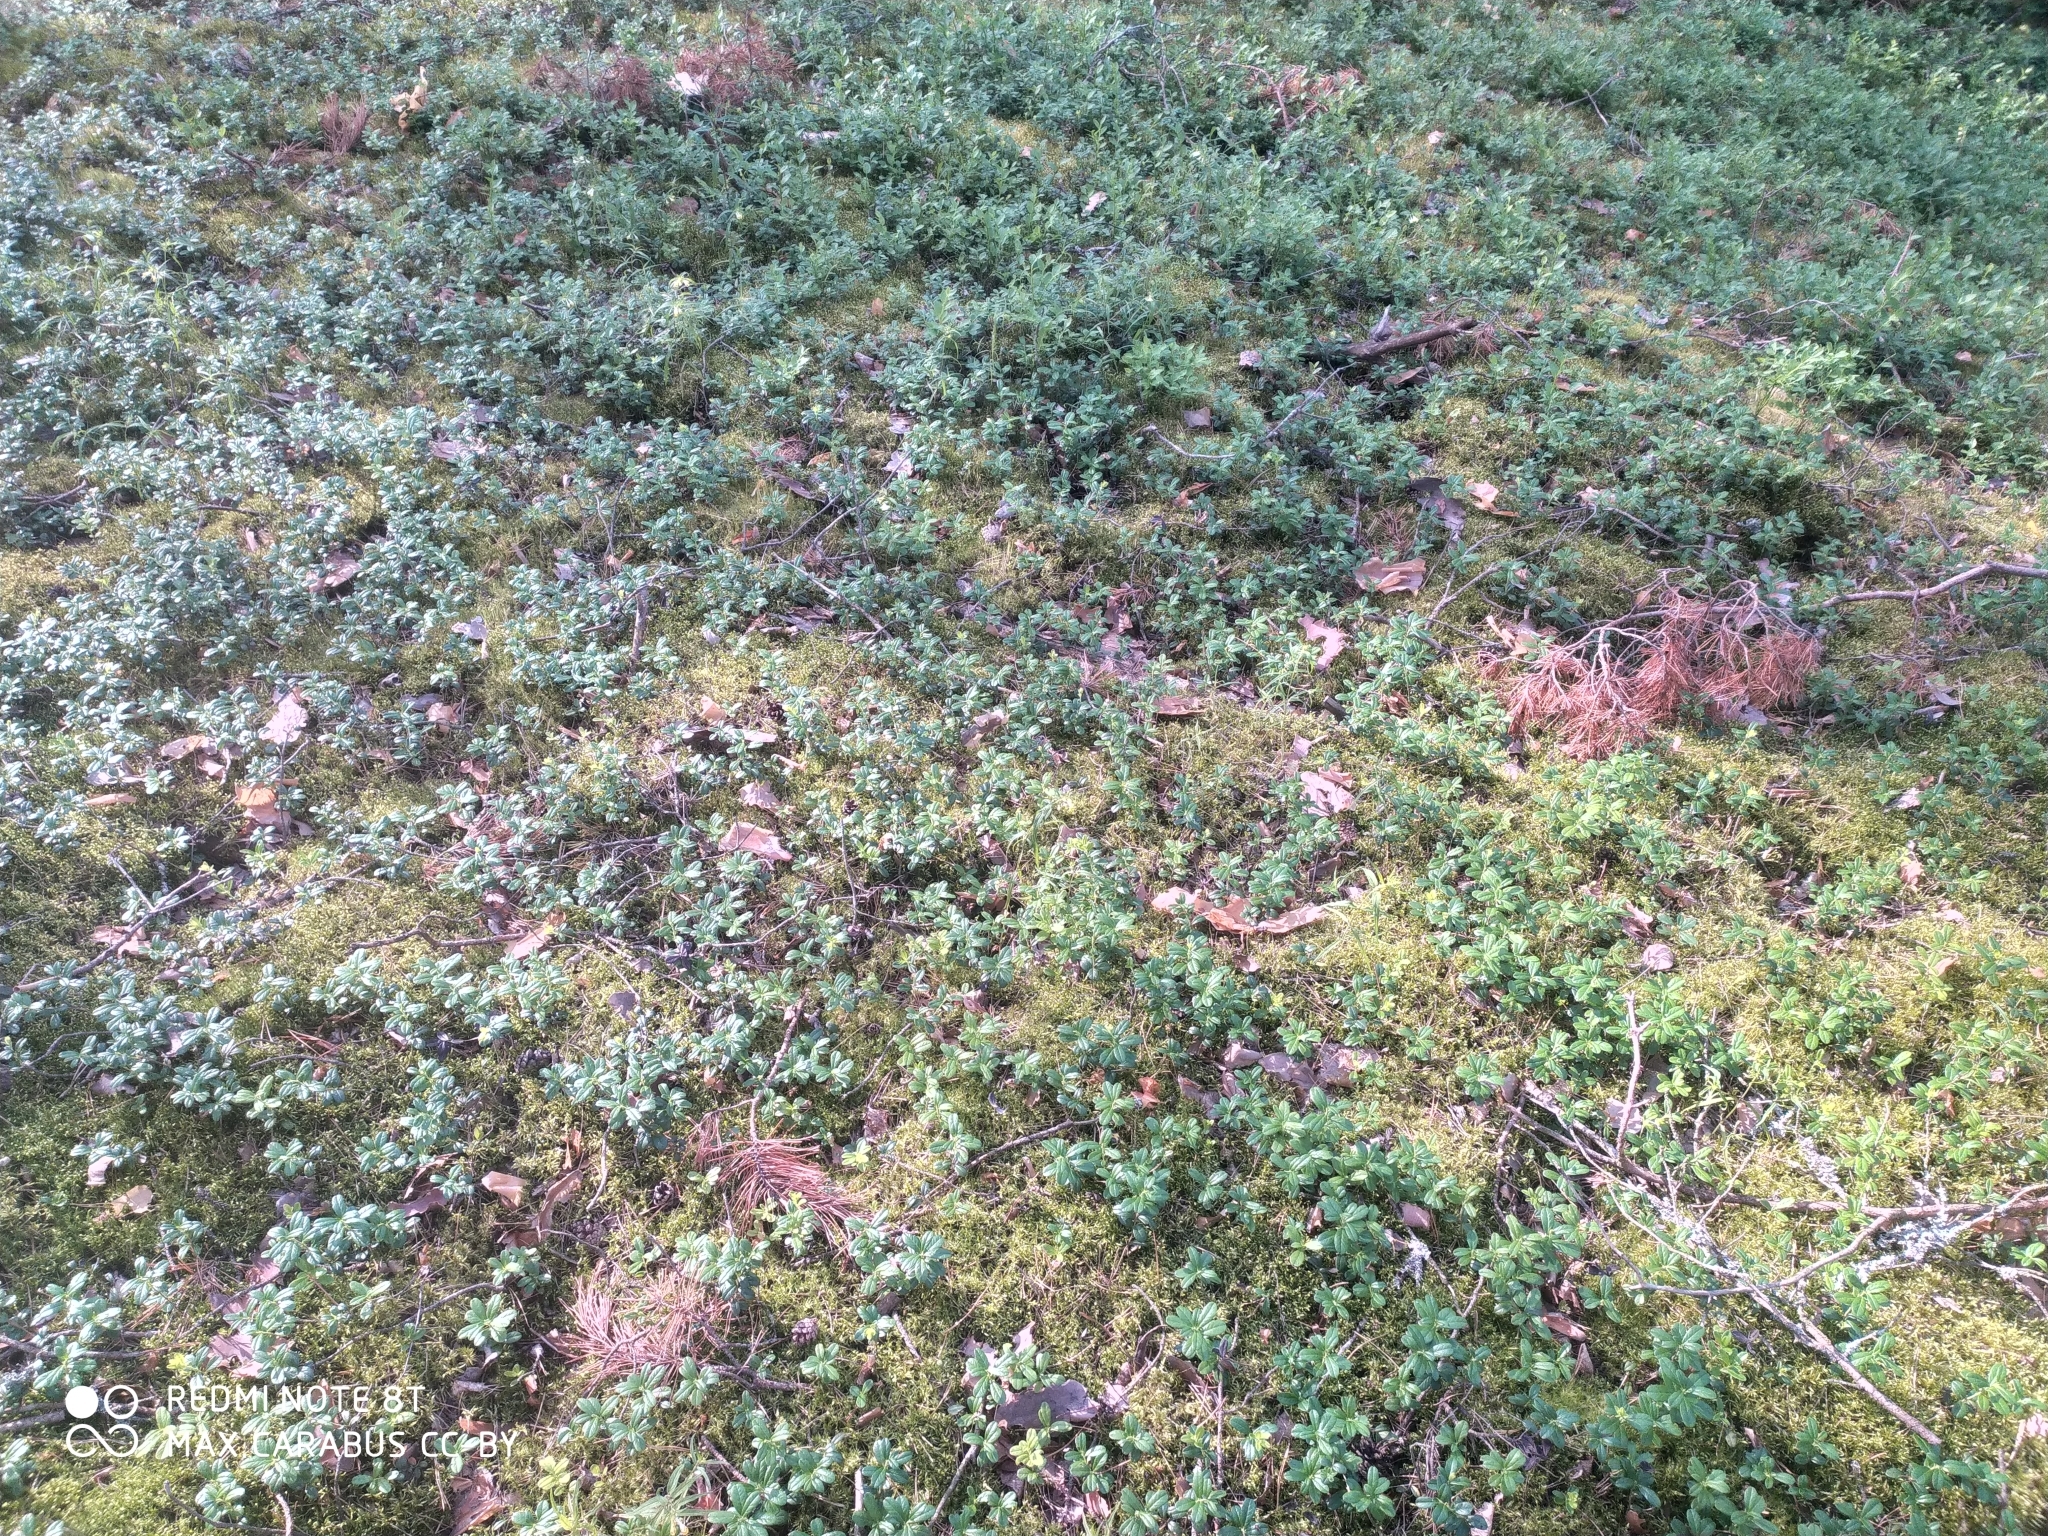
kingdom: Plantae
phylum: Tracheophyta
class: Magnoliopsida
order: Ericales
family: Ericaceae
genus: Vaccinium
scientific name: Vaccinium vitis-idaea
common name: Cowberry
